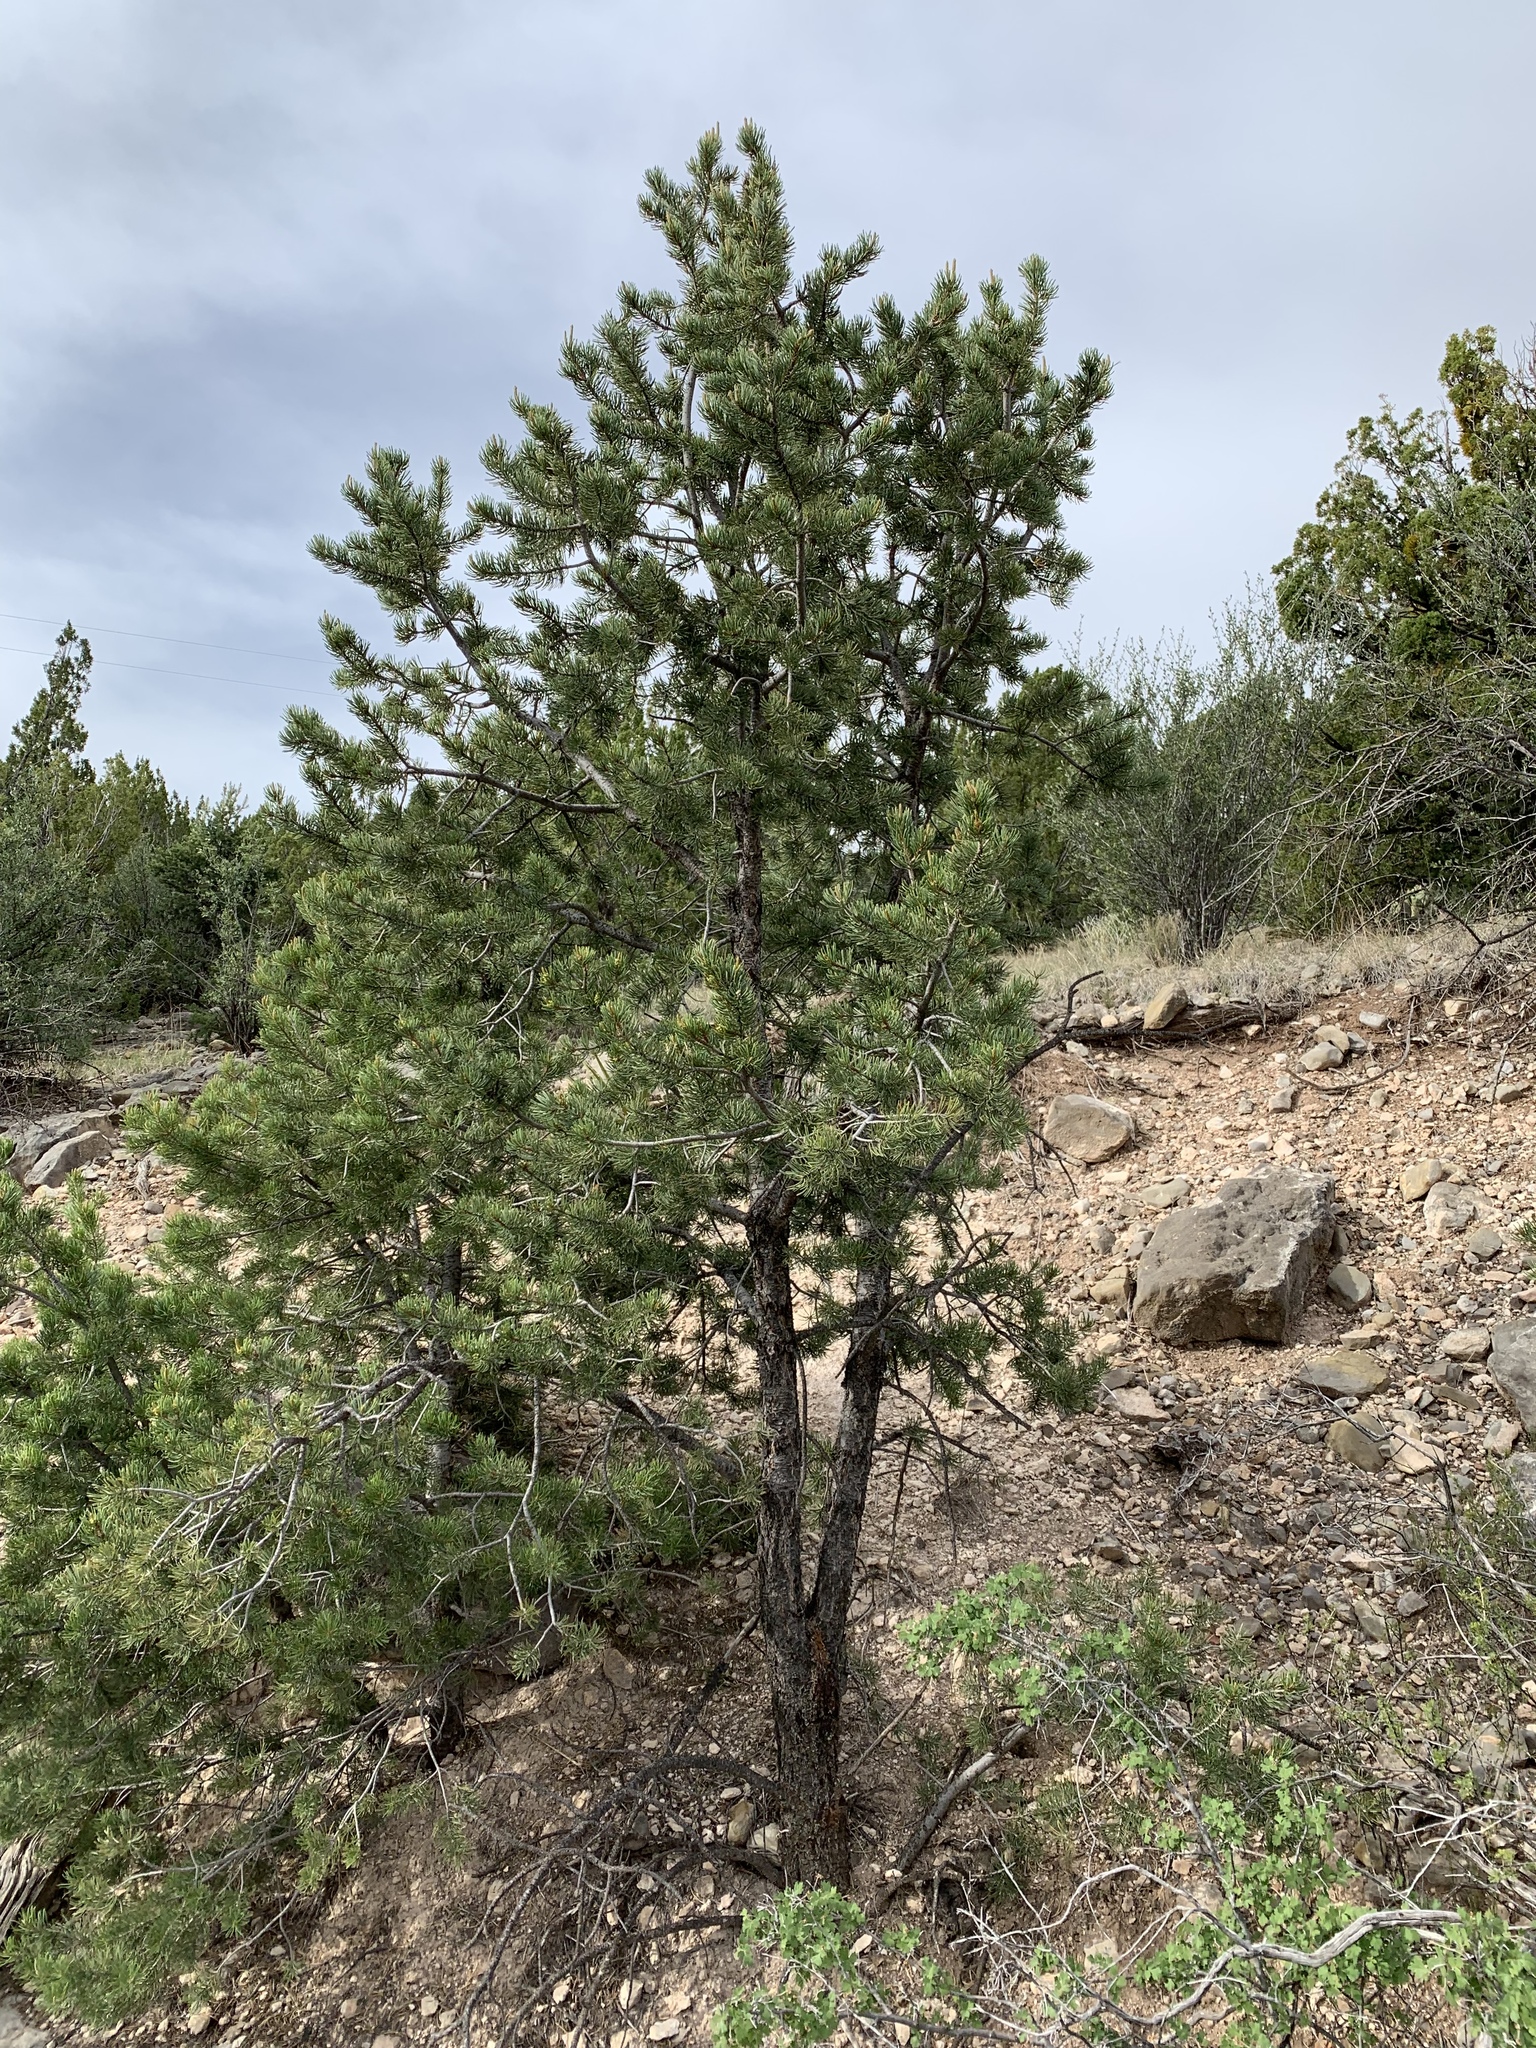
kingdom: Plantae
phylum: Tracheophyta
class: Pinopsida
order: Pinales
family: Pinaceae
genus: Pinus
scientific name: Pinus edulis
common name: Colorado pinyon
